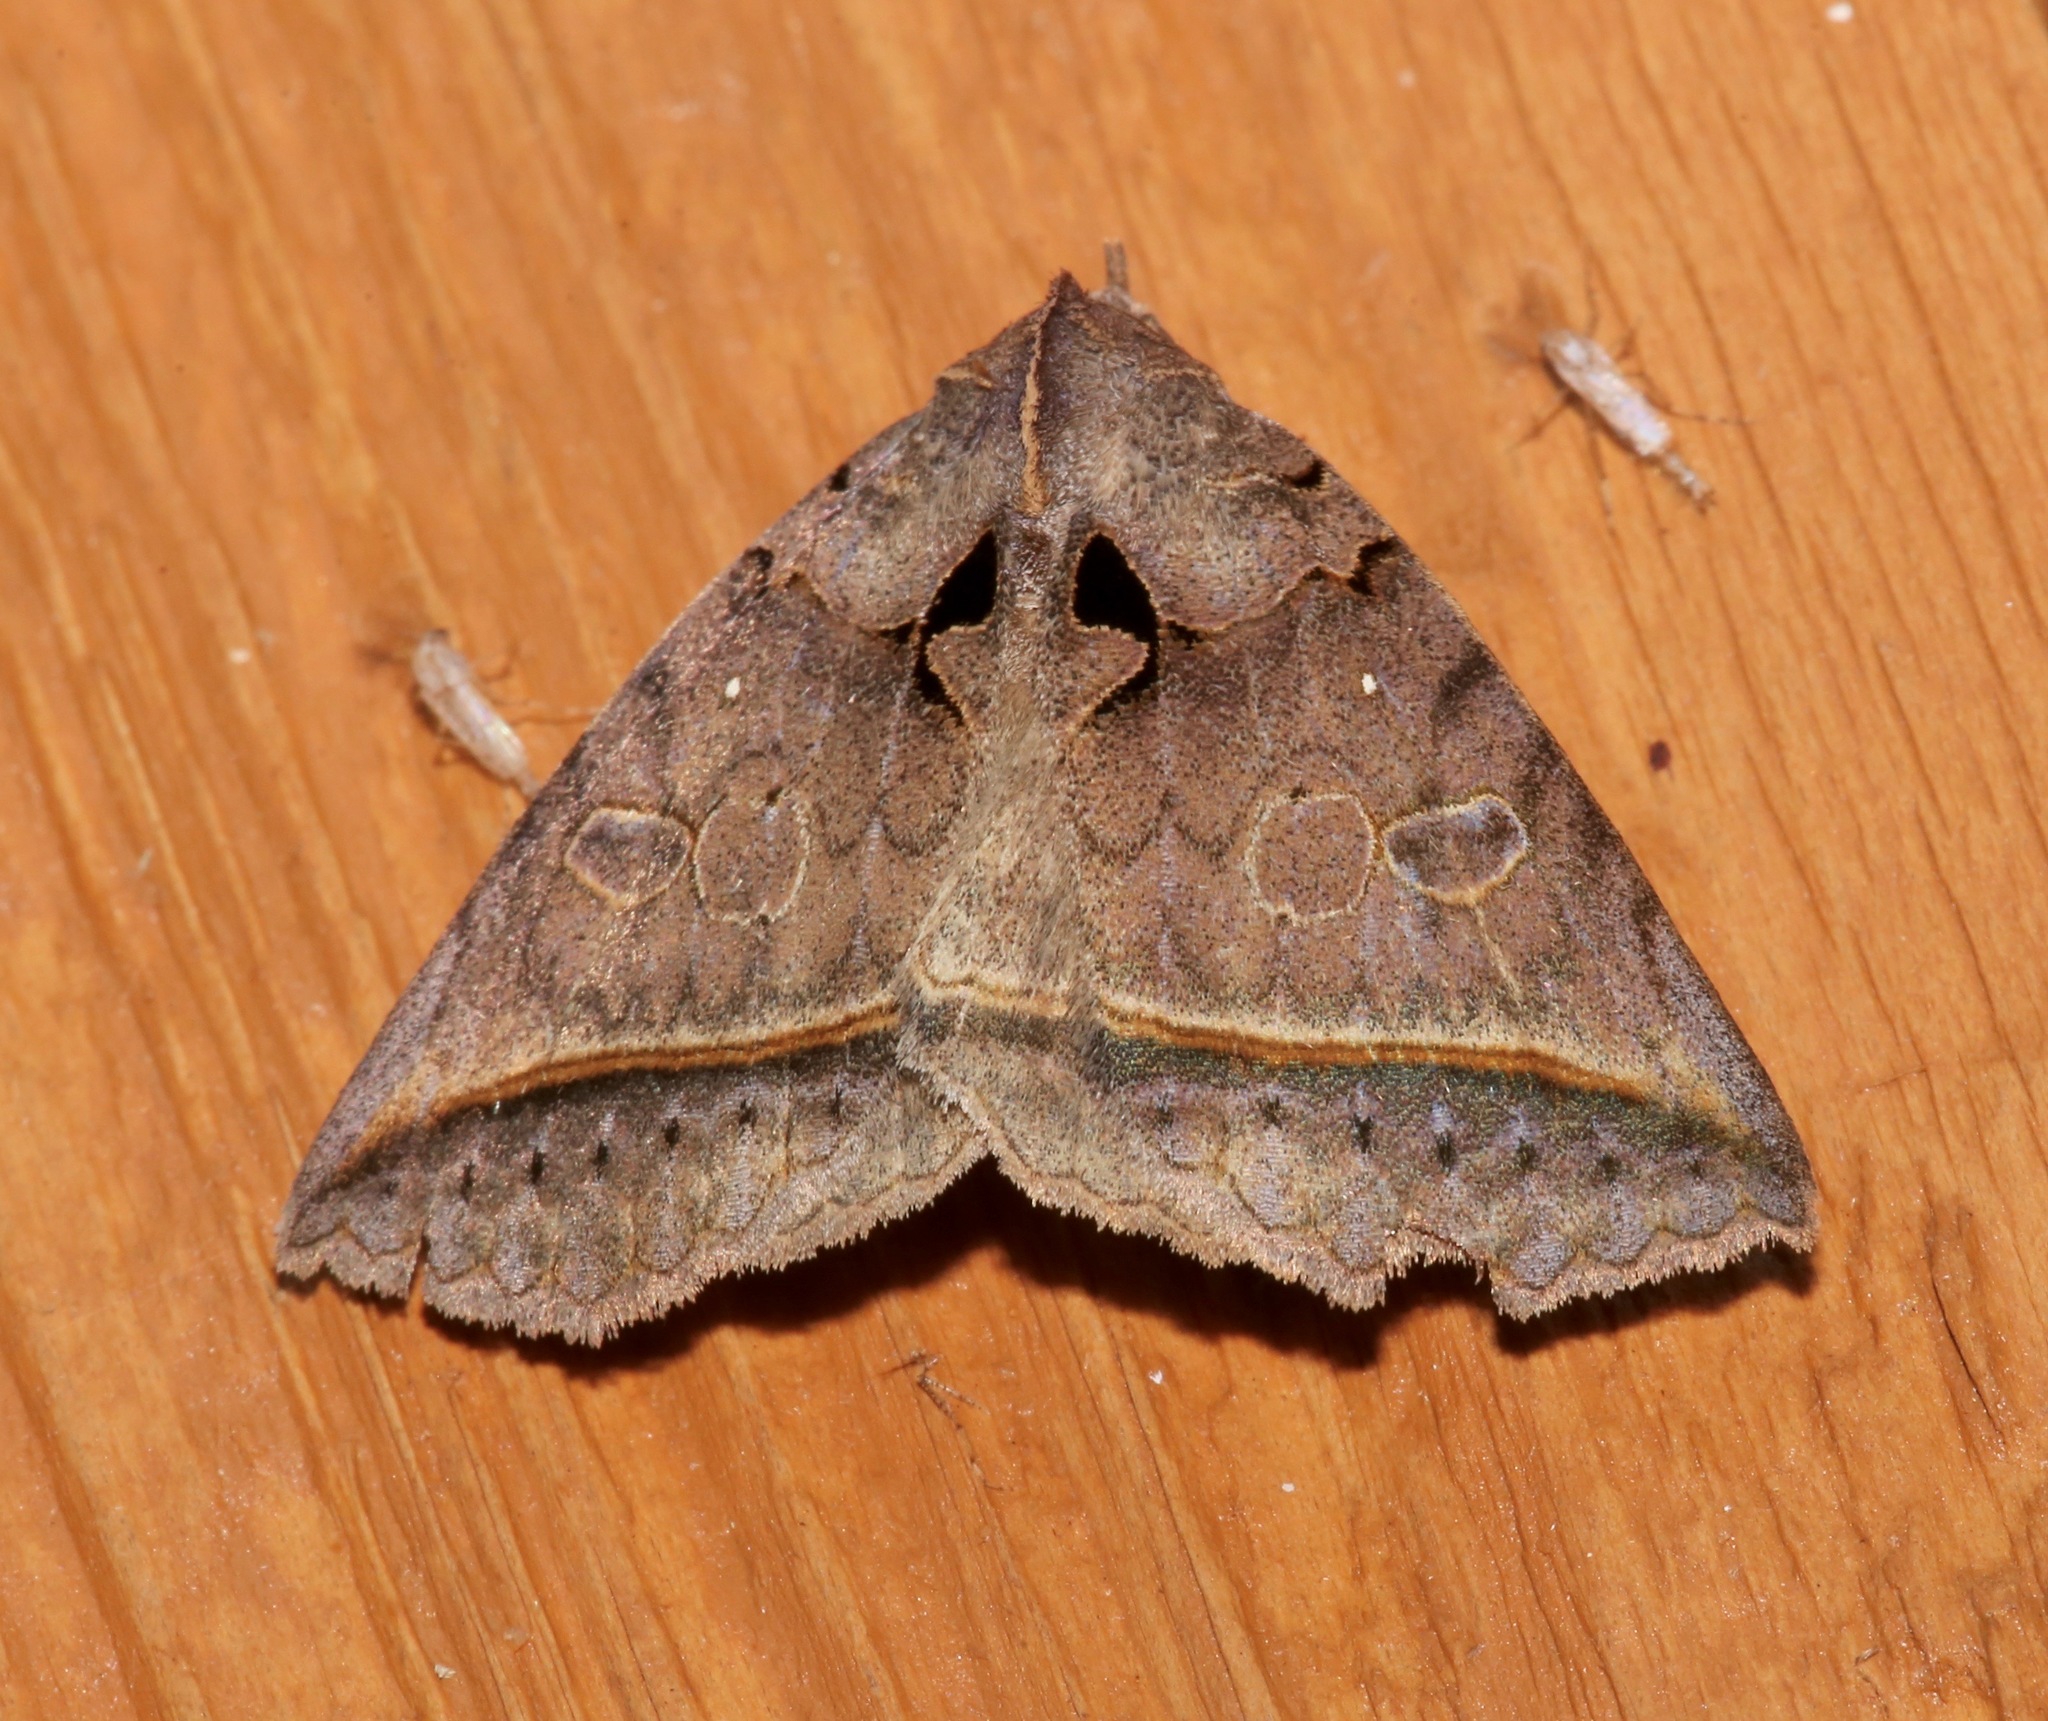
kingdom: Animalia
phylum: Arthropoda
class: Insecta
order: Lepidoptera
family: Erebidae
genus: Celiptera
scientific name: Celiptera frustulum
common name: Black bit moth
